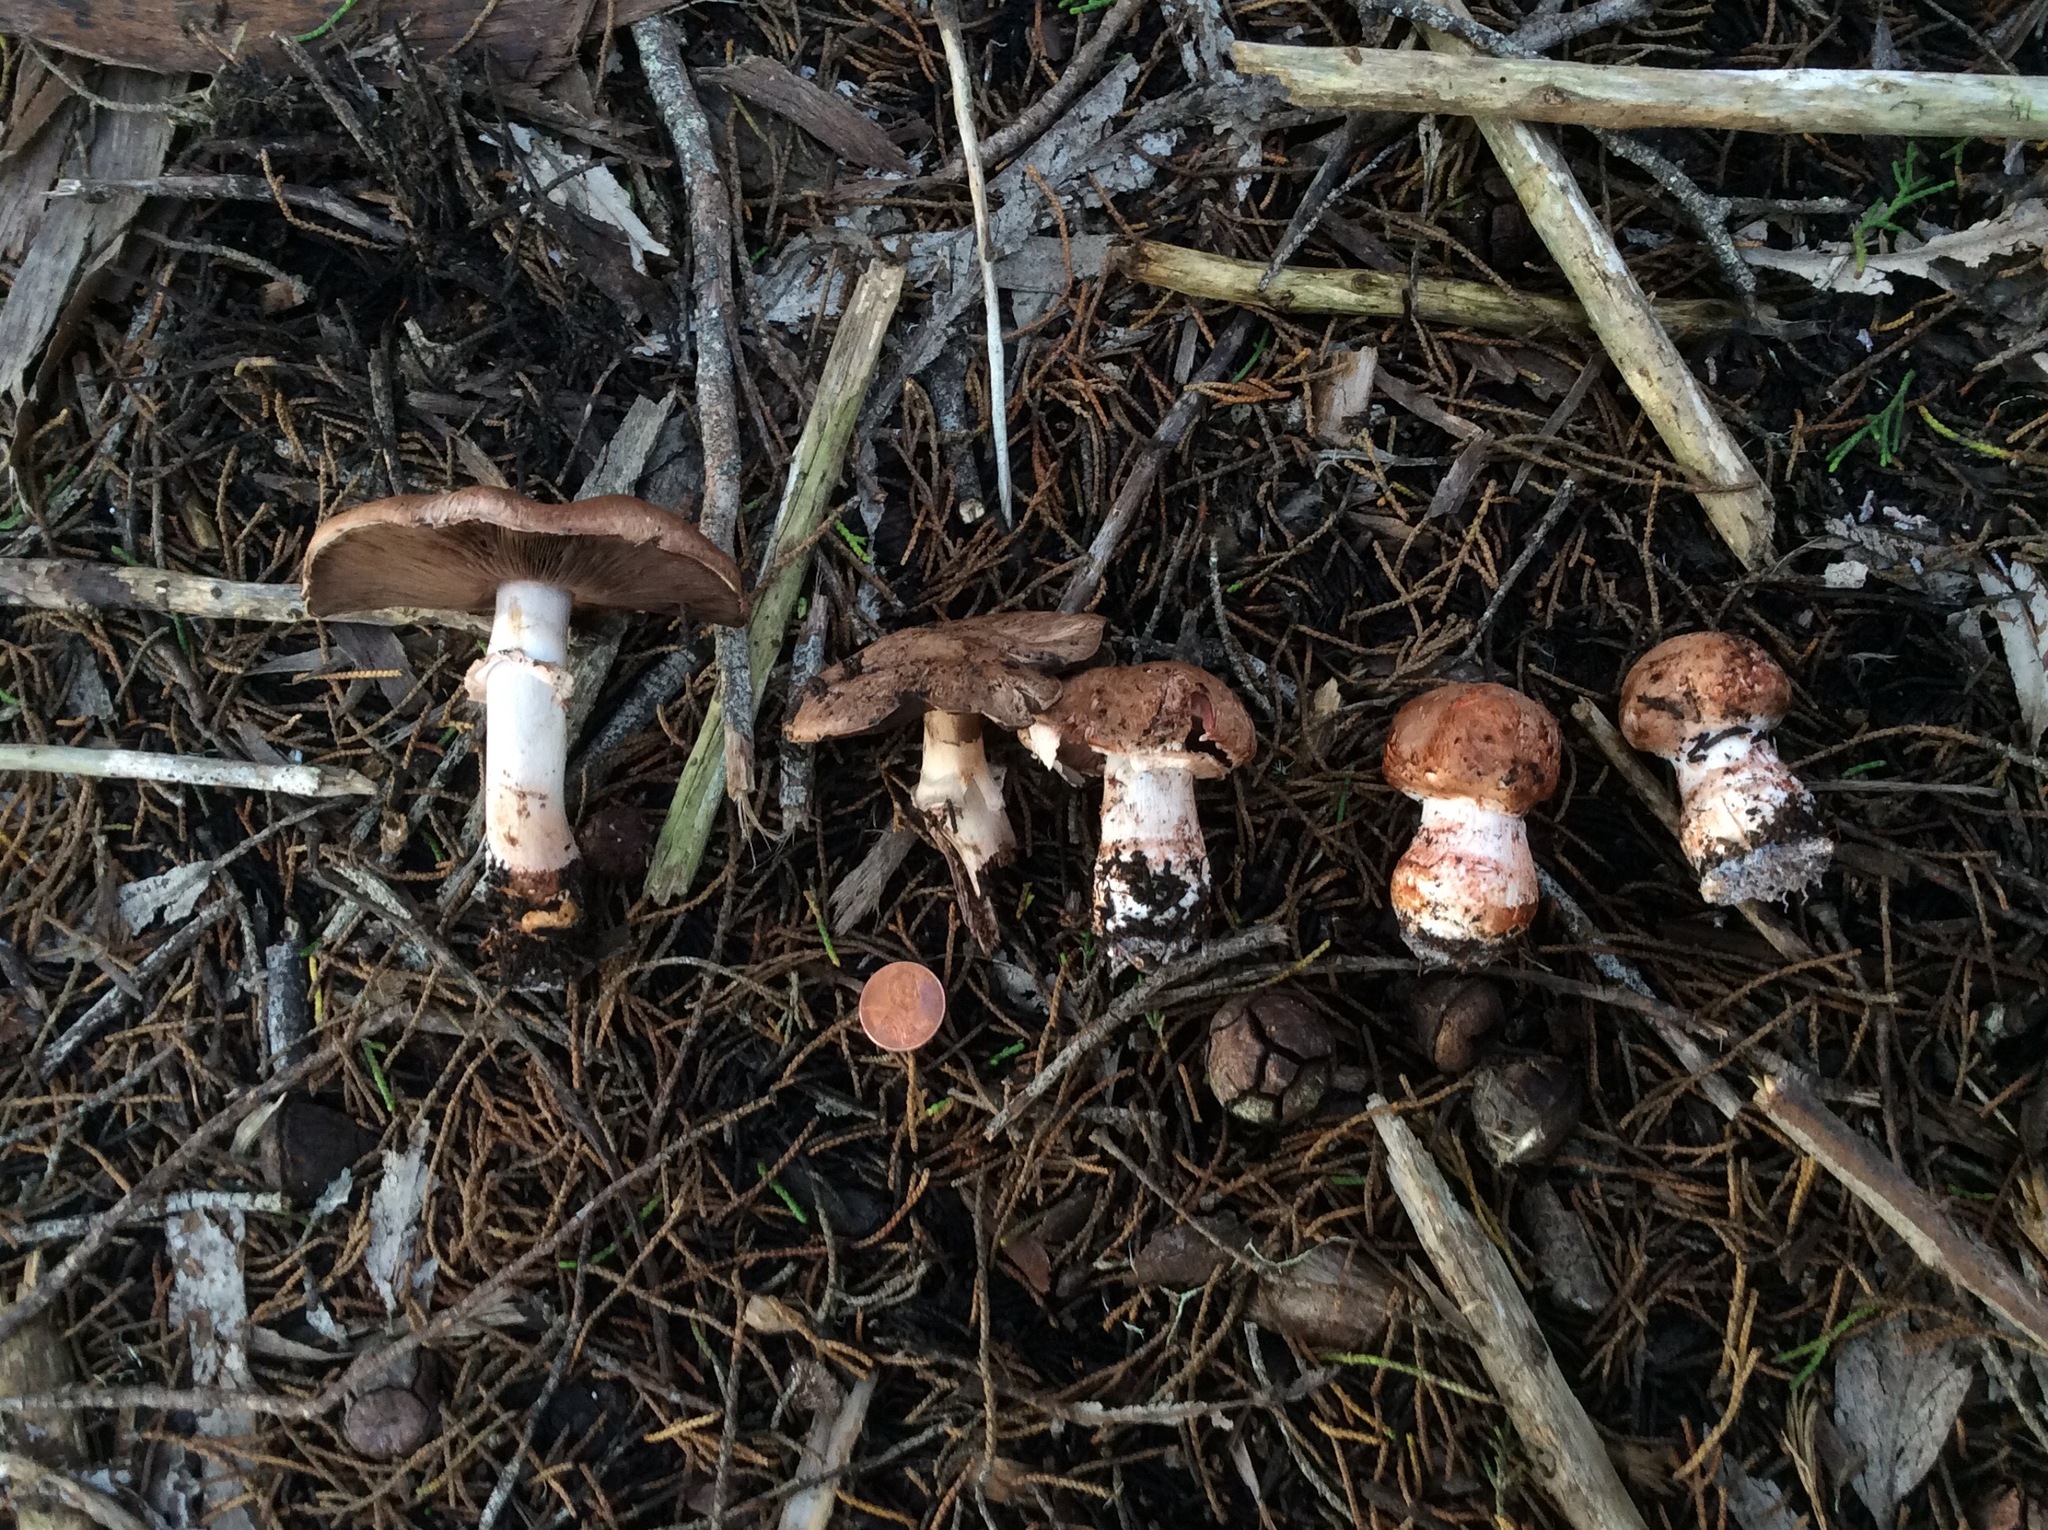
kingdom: Fungi
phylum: Basidiomycota
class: Agaricomycetes
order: Agaricales
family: Agaricaceae
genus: Agaricus
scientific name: Agaricus brunneofibrillosus
